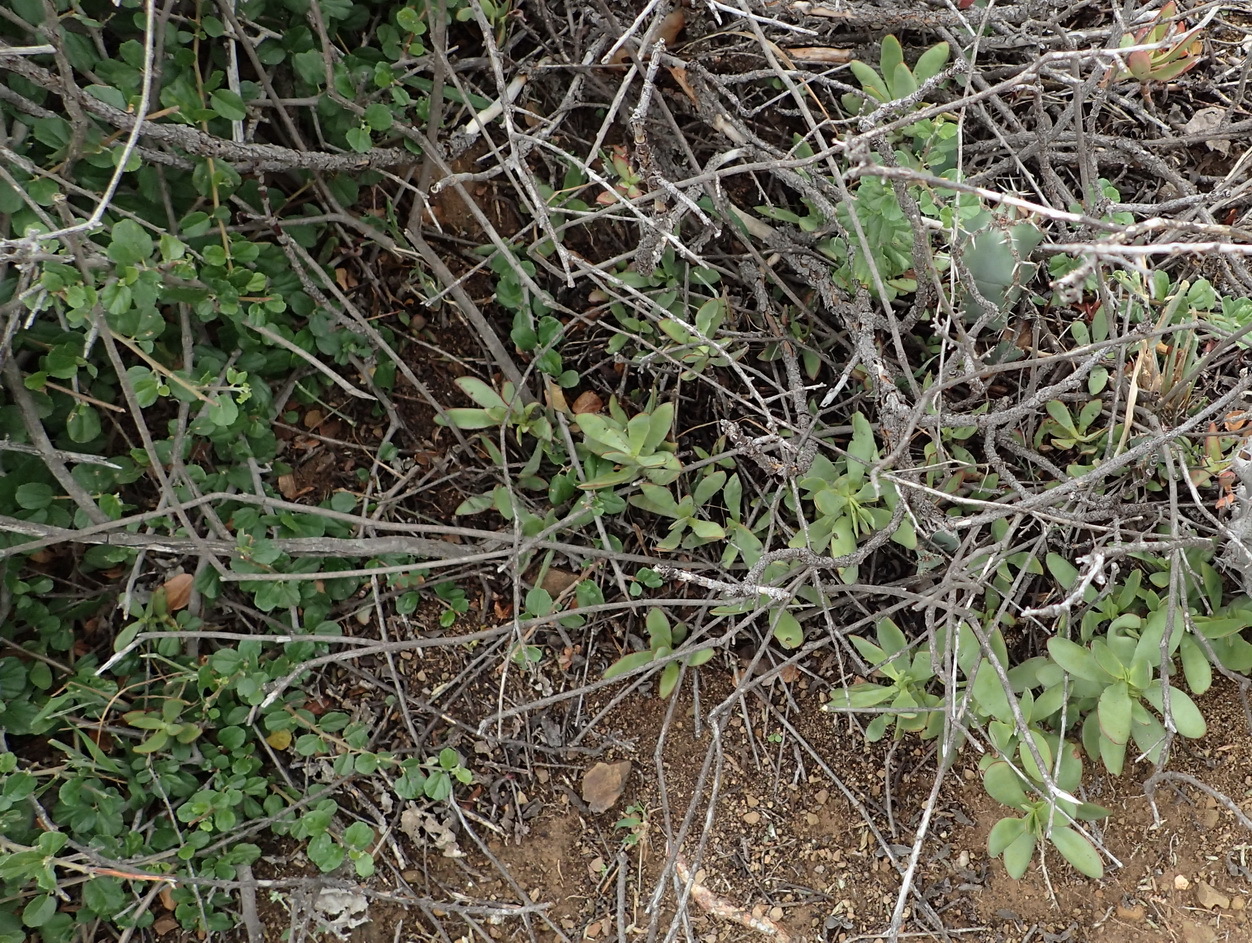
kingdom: Plantae
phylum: Tracheophyta
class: Magnoliopsida
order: Saxifragales
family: Crassulaceae
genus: Crassula
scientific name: Crassula cultrata
